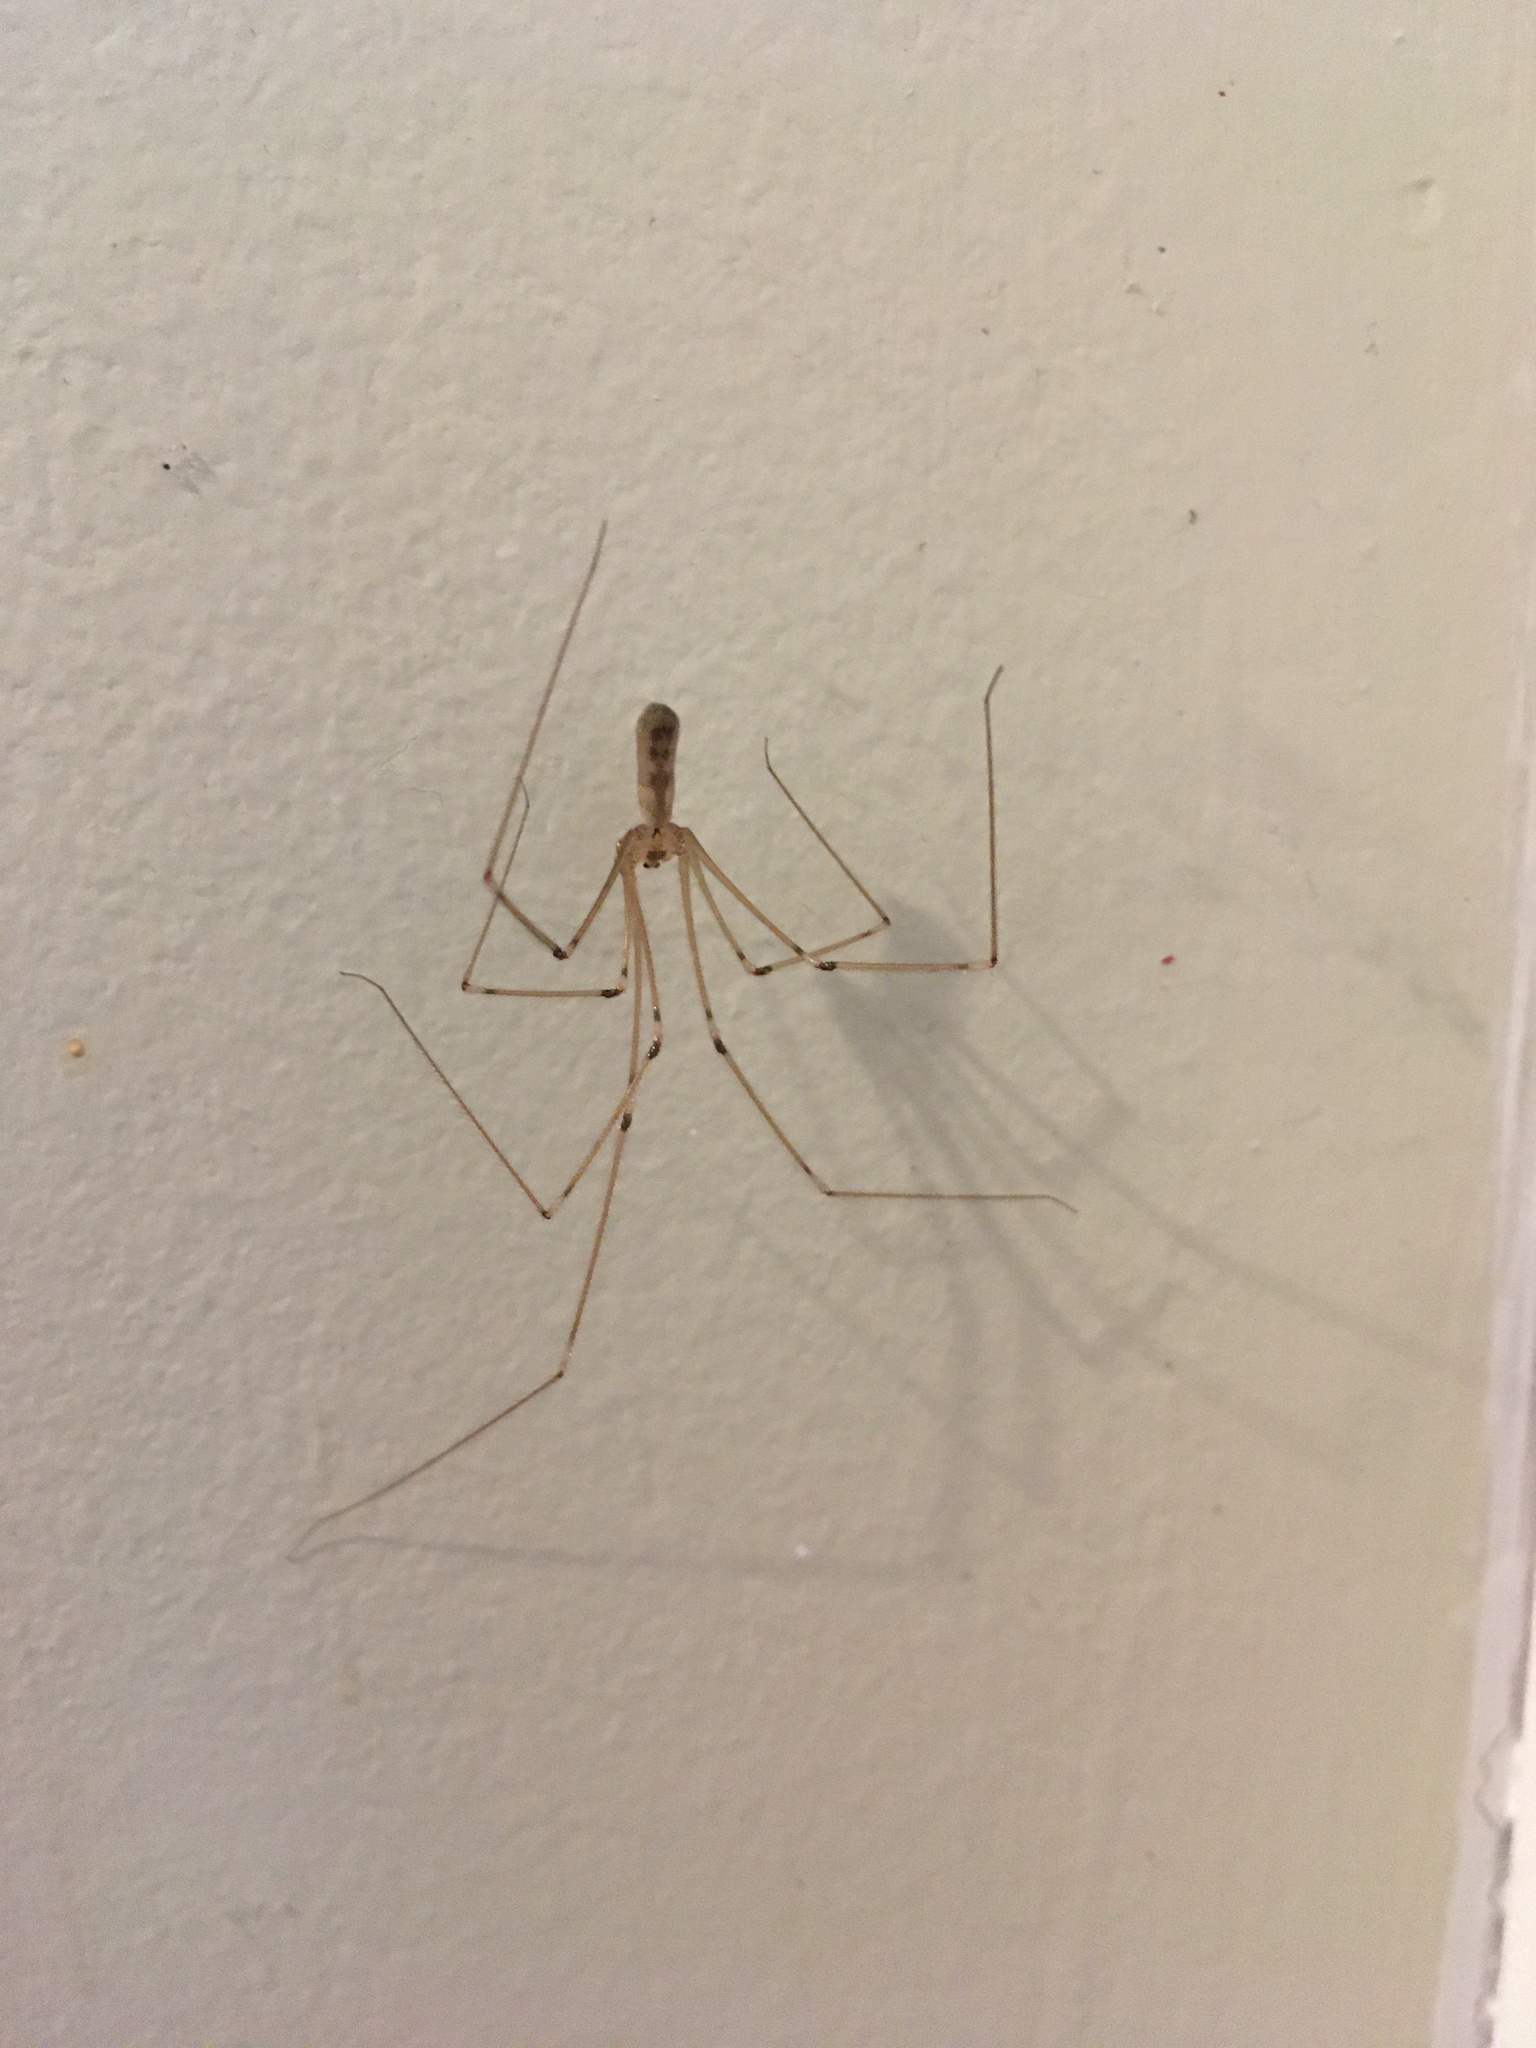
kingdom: Animalia
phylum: Arthropoda
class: Arachnida
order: Araneae
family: Pholcidae
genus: Pholcus
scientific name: Pholcus phalangioides
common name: Longbodied cellar spider
